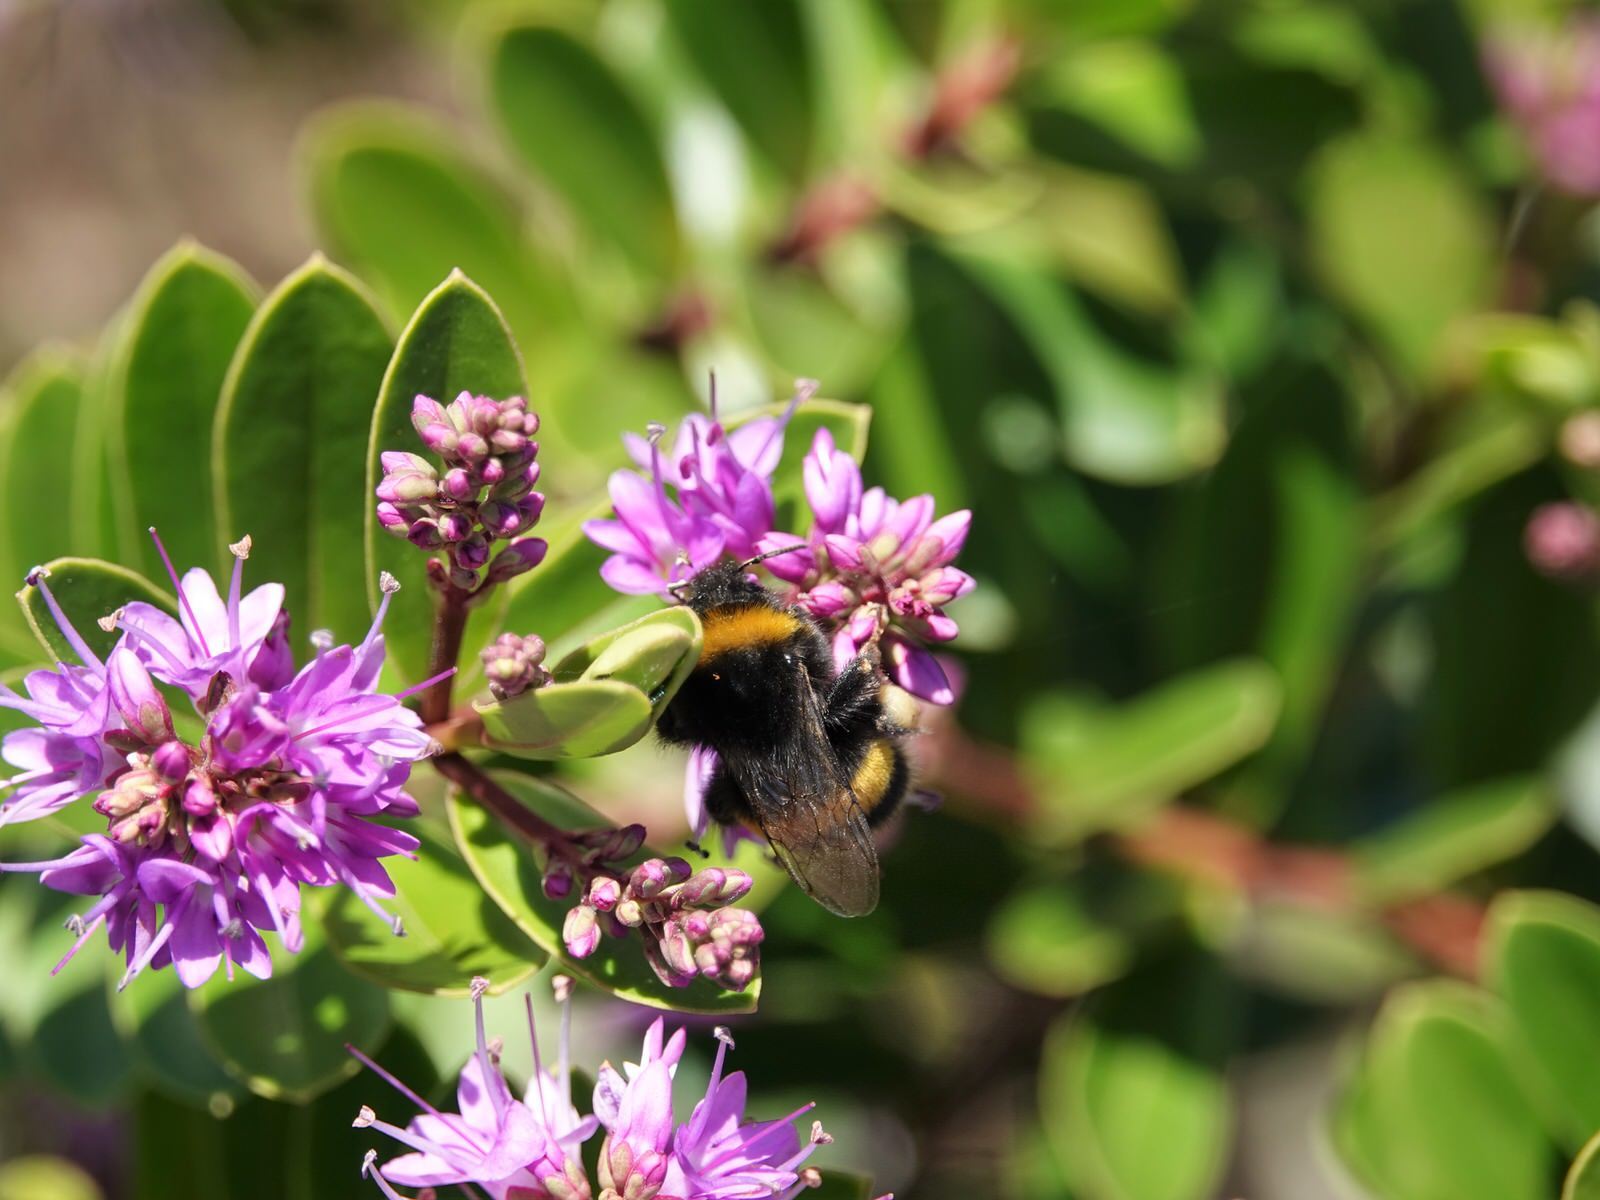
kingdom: Animalia
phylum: Arthropoda
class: Insecta
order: Hymenoptera
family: Apidae
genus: Bombus
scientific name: Bombus terrestris
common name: Buff-tailed bumblebee
